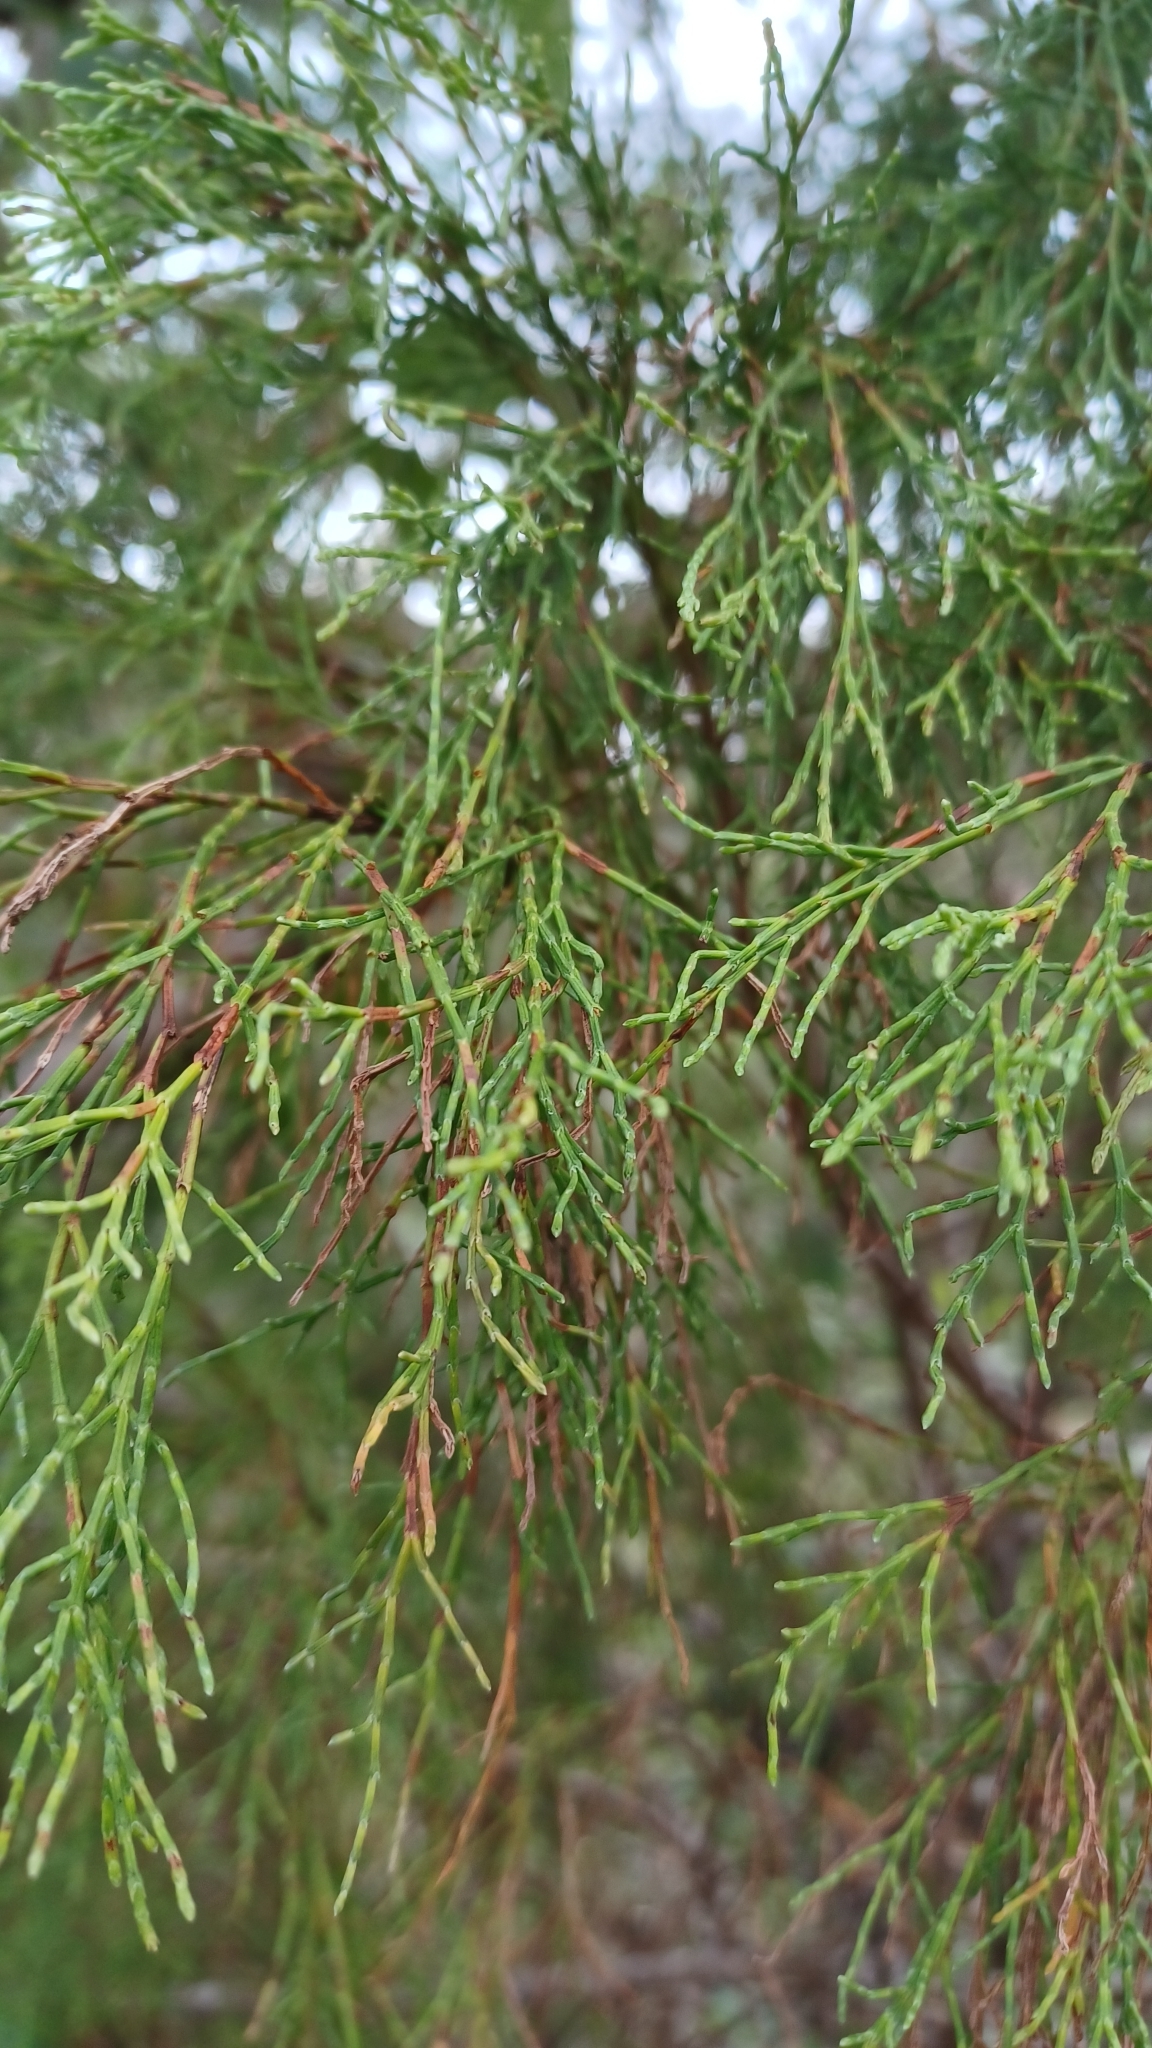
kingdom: Plantae
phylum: Tracheophyta
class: Pinopsida
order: Pinales
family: Cupressaceae
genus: Callitris
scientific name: Callitris rhomboidea
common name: Illawara mountain pine
